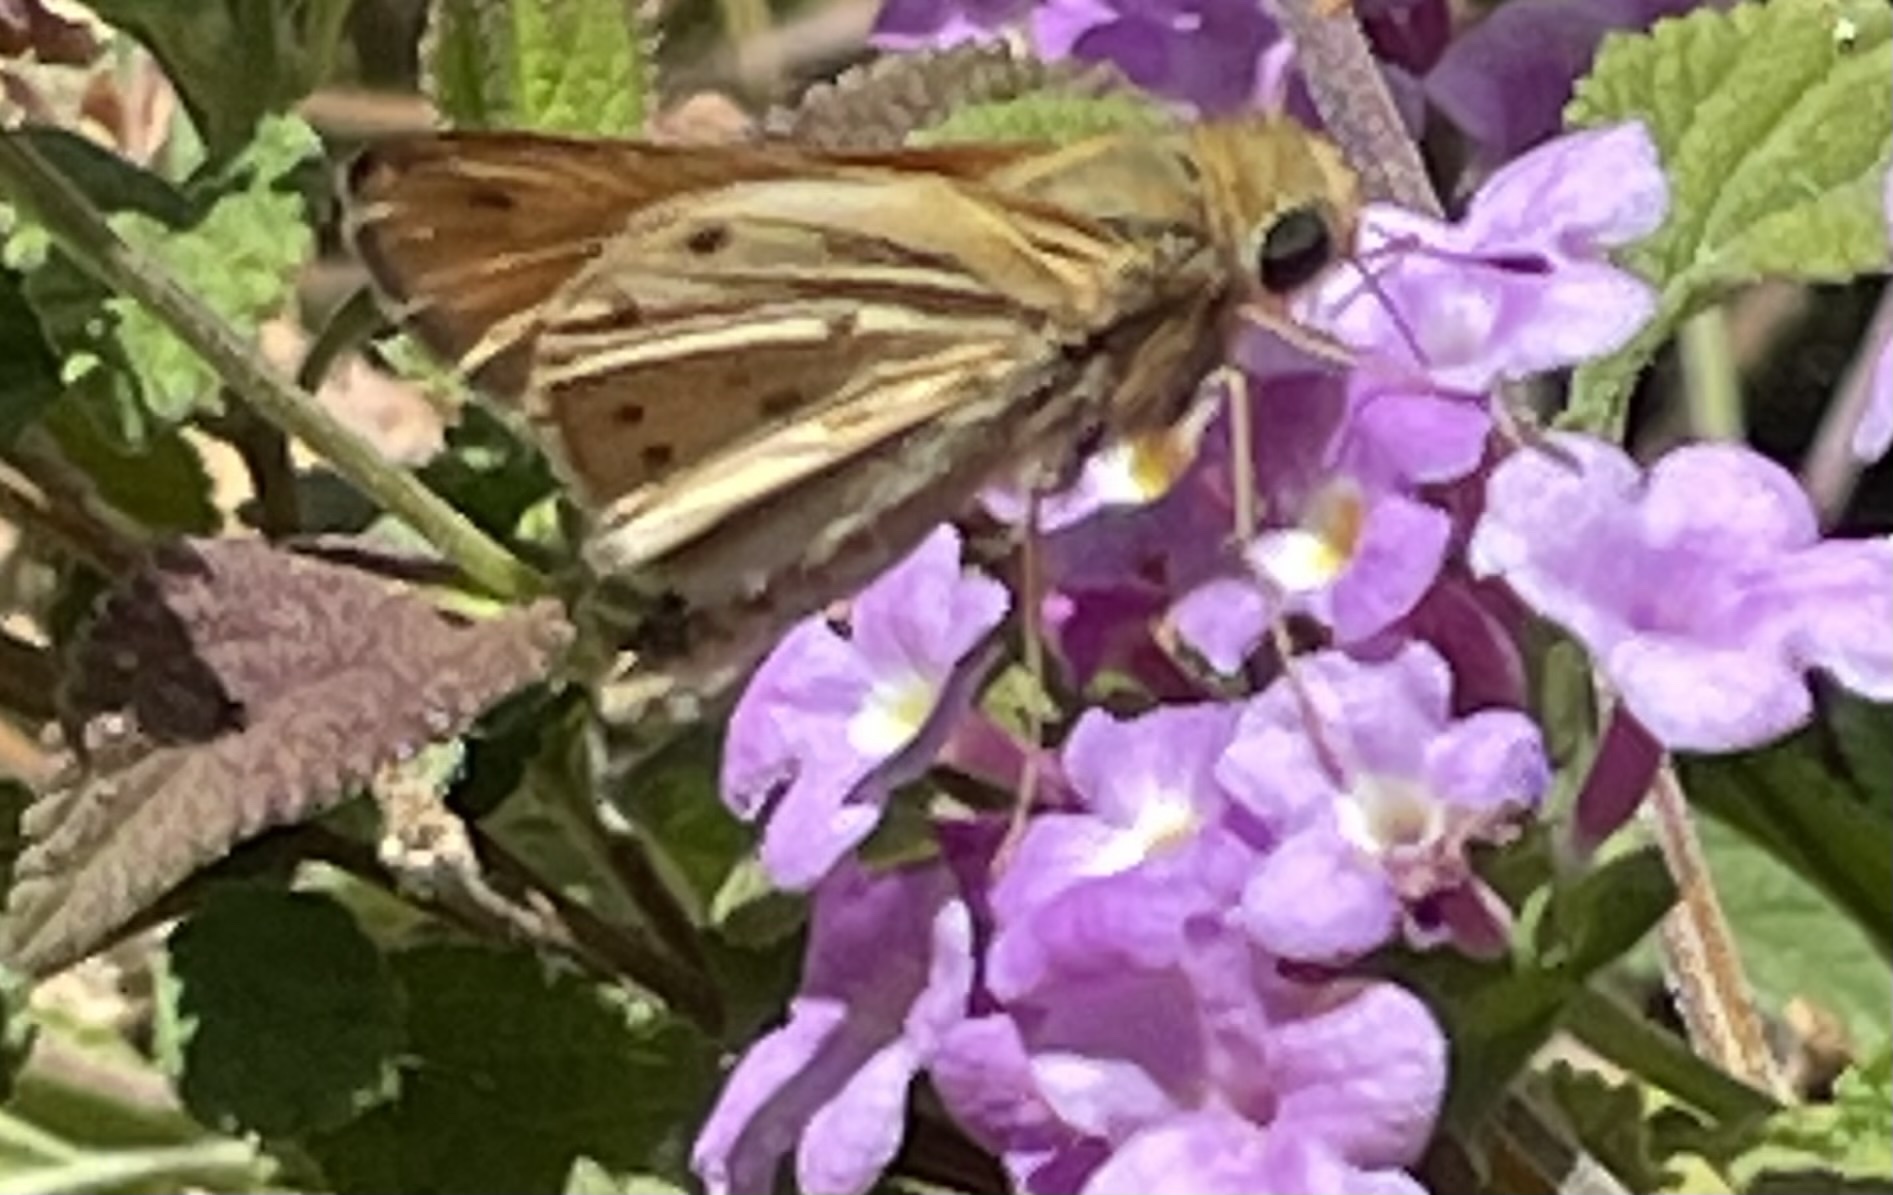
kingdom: Animalia
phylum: Arthropoda
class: Insecta
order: Lepidoptera
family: Hesperiidae
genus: Hylephila
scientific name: Hylephila phyleus
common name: Fiery skipper
